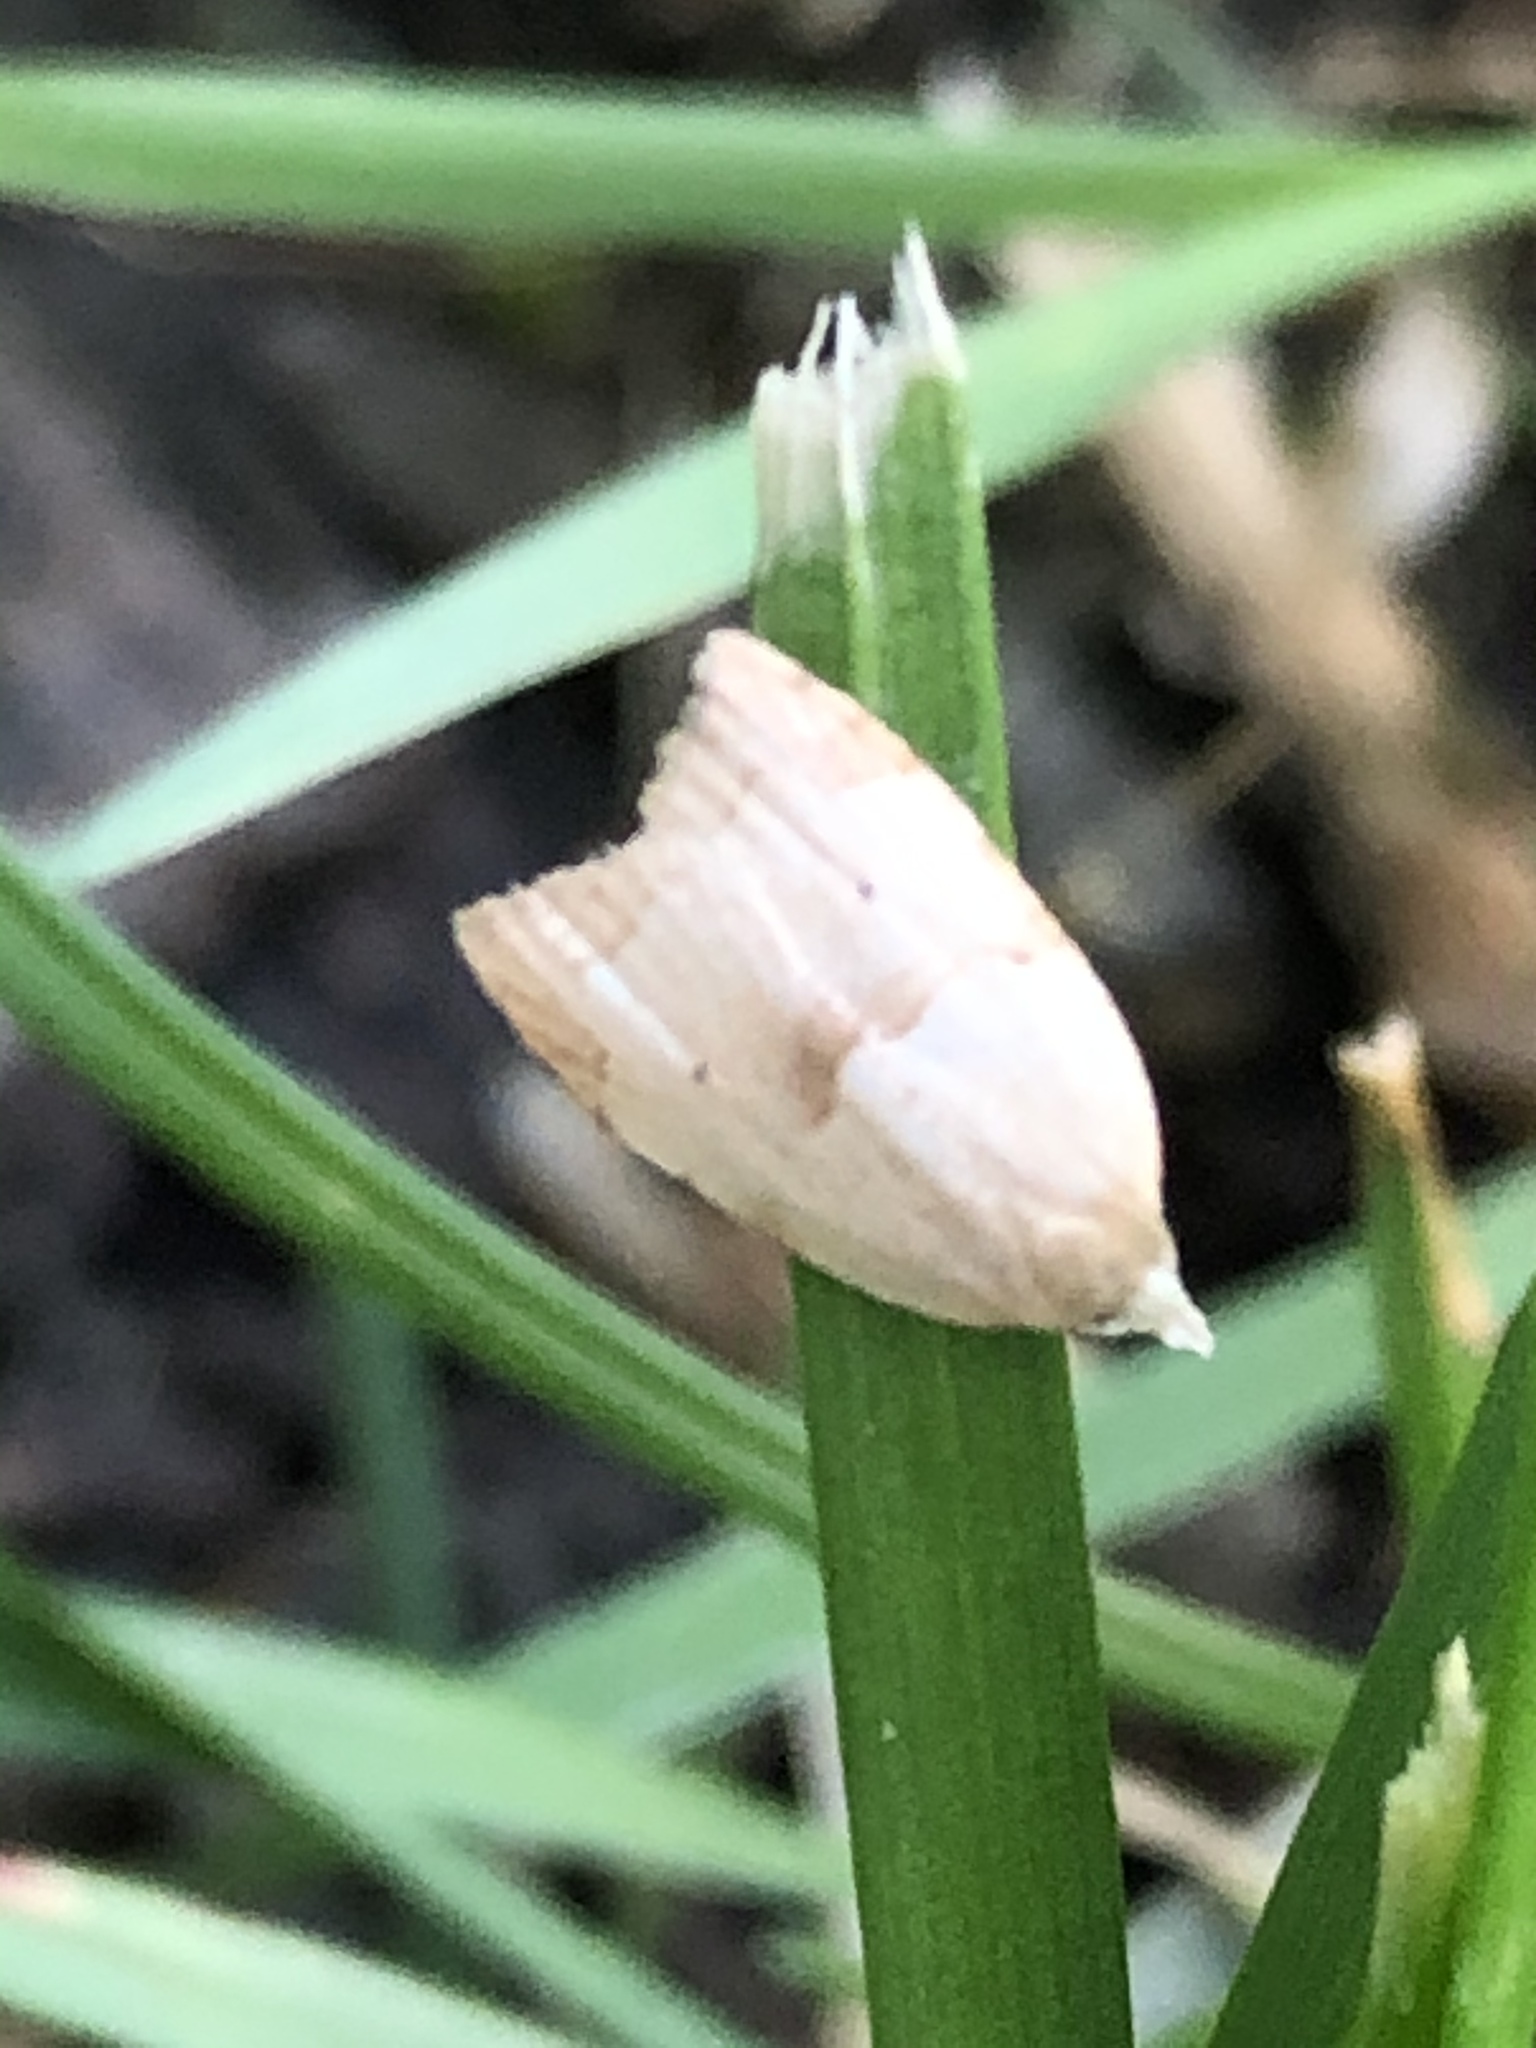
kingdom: Animalia
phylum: Arthropoda
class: Insecta
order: Lepidoptera
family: Tortricidae
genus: Coelostathma
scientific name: Coelostathma discopunctana
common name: Batman moth
